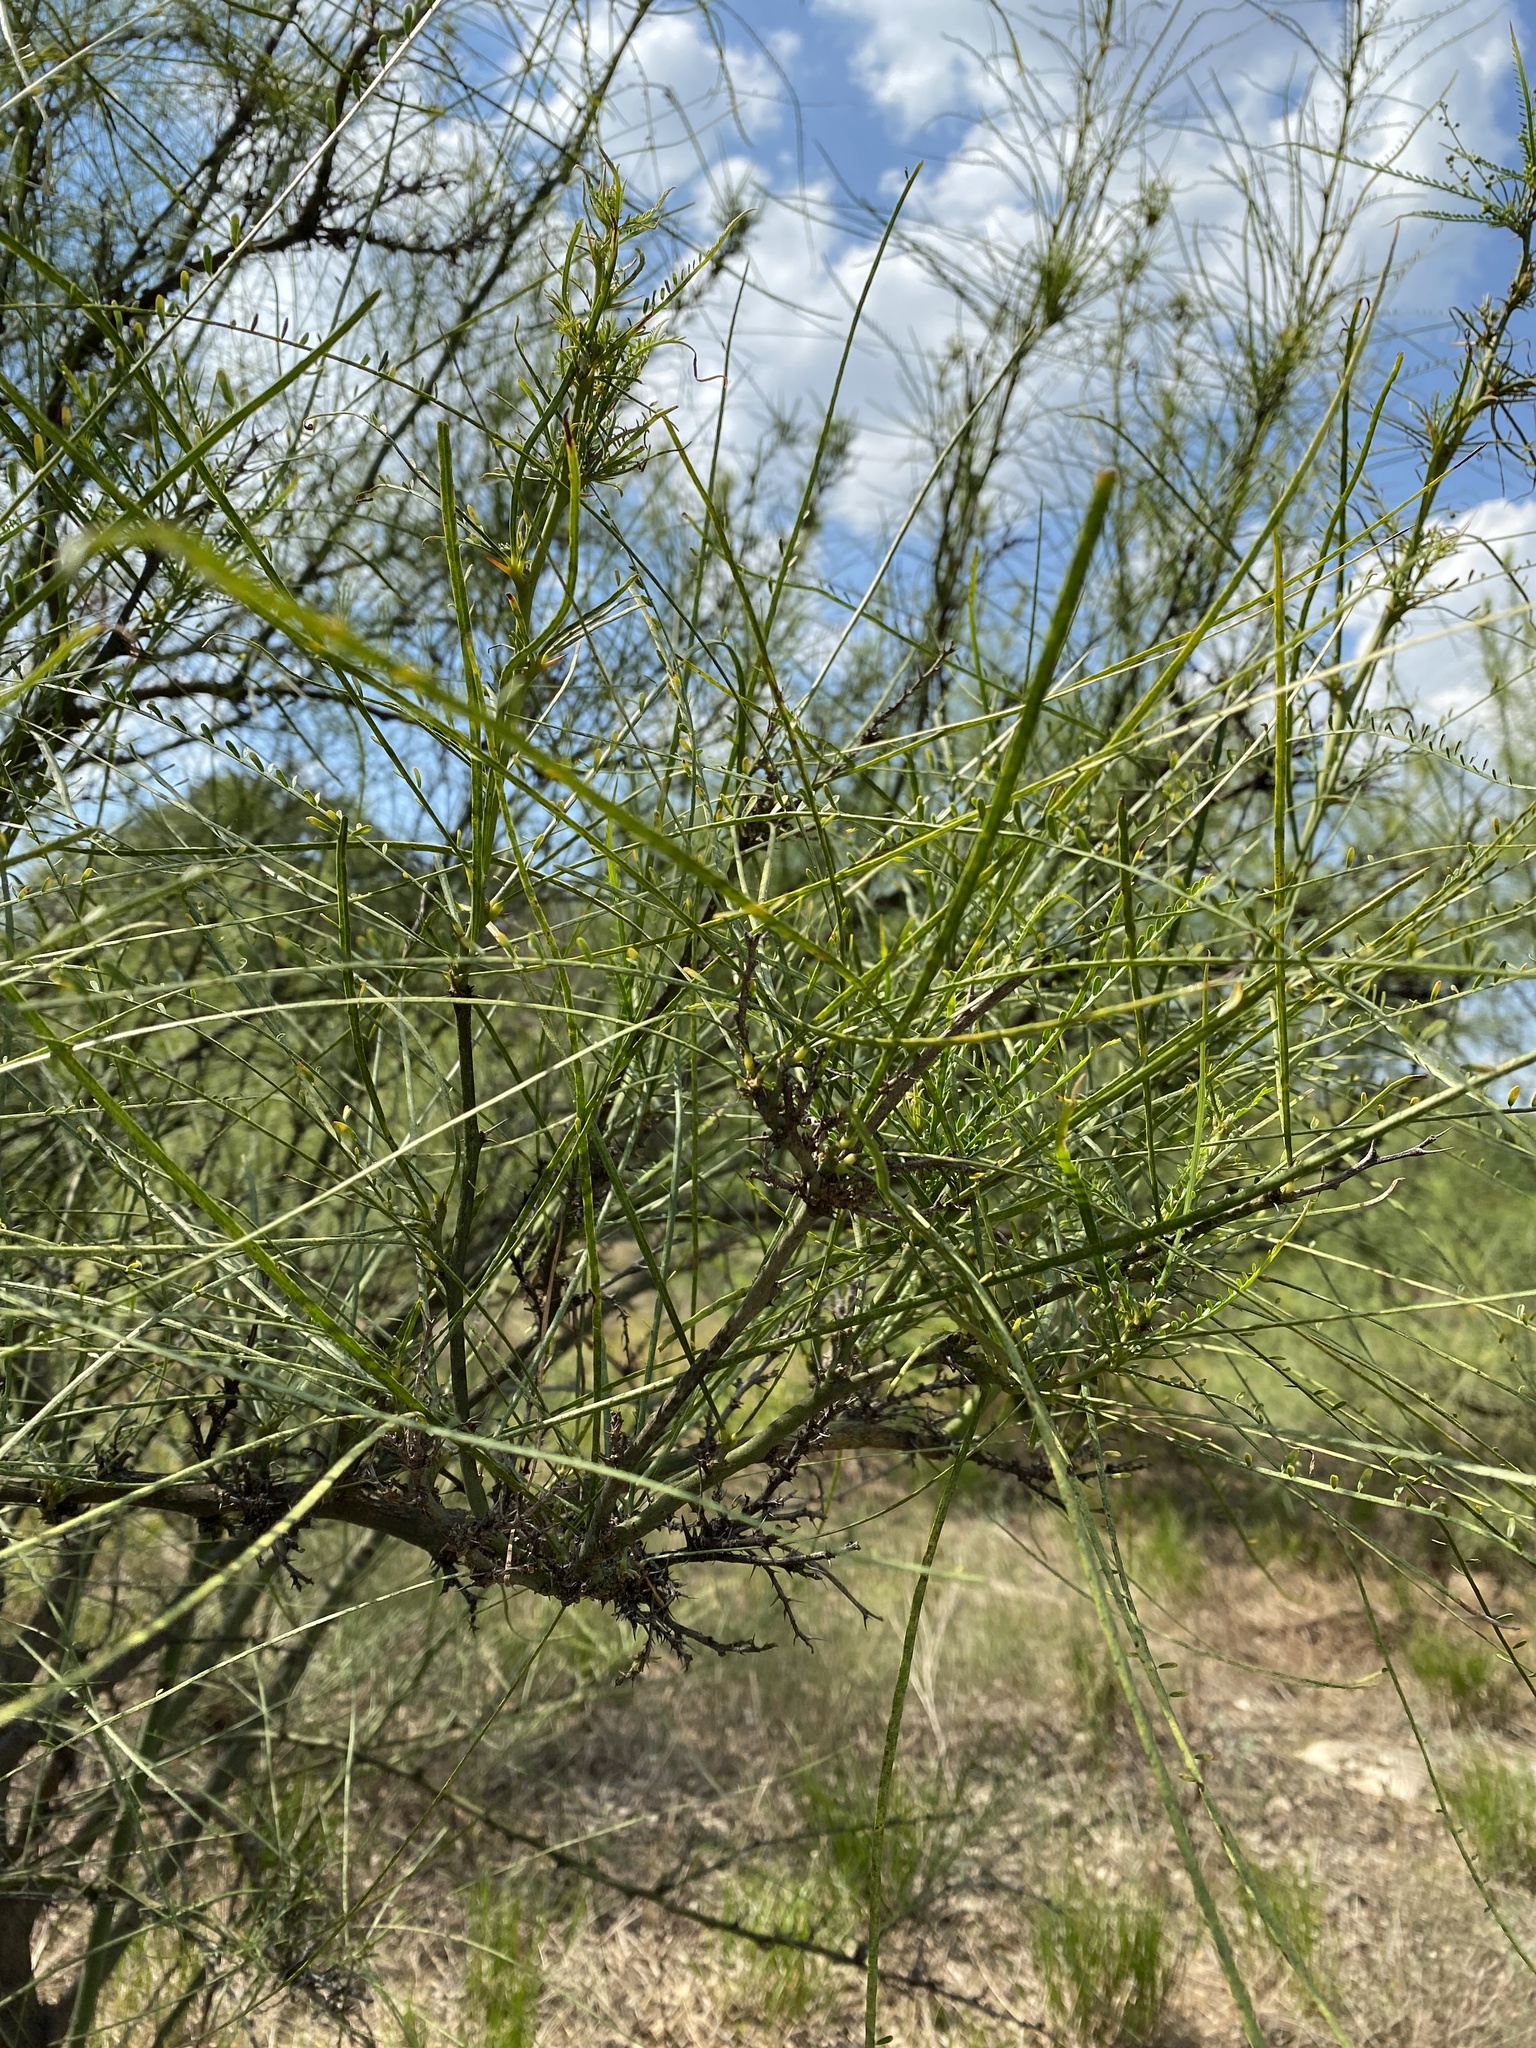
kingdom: Plantae
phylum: Tracheophyta
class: Magnoliopsida
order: Fabales
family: Fabaceae
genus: Parkinsonia
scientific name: Parkinsonia aculeata
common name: Jerusalem thorn
